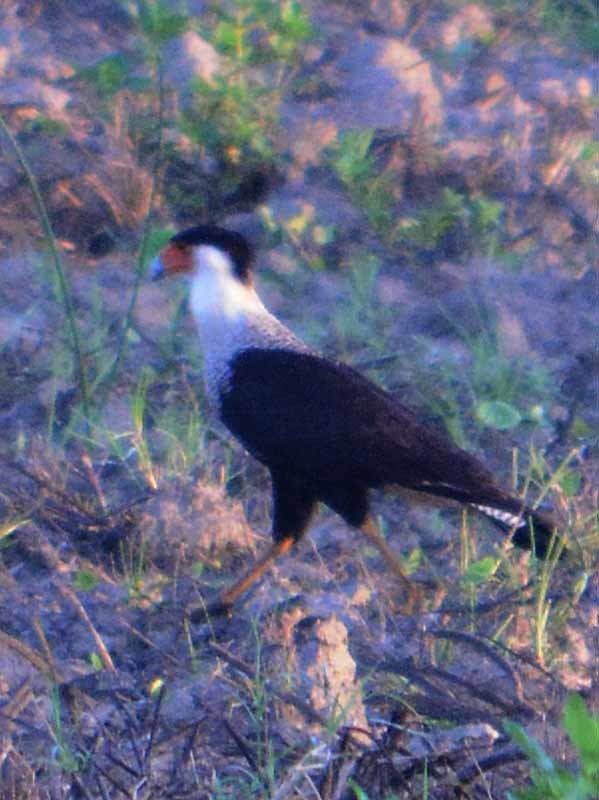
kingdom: Animalia
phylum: Chordata
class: Aves
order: Falconiformes
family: Falconidae
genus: Caracara
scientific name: Caracara plancus
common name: Southern caracara
